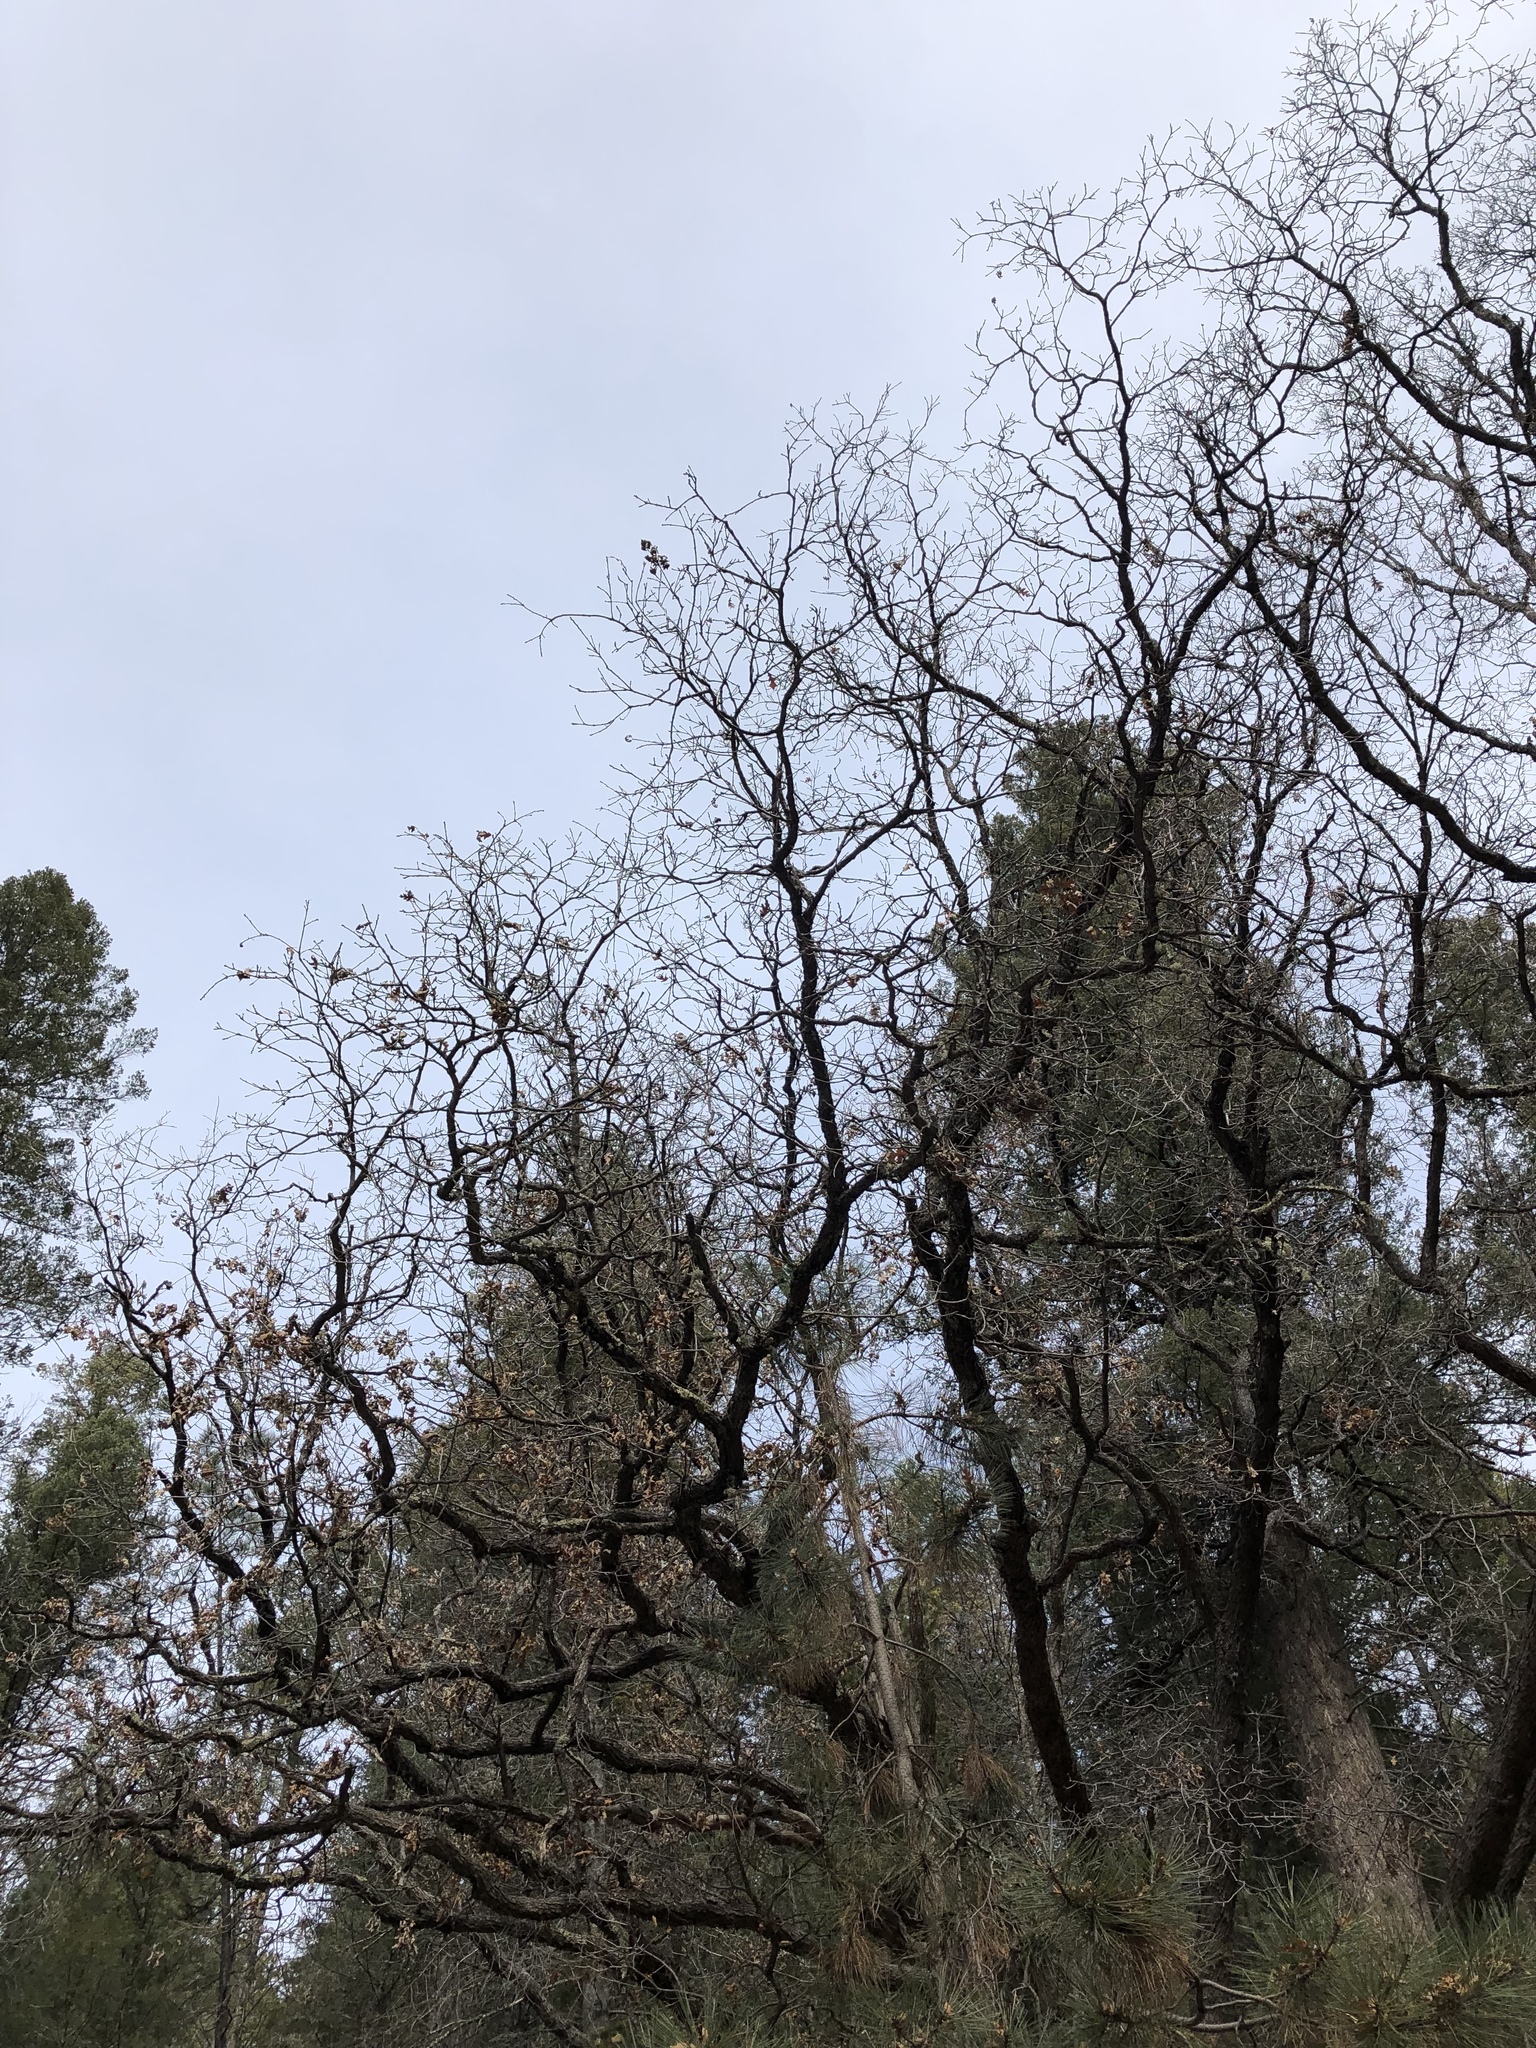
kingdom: Plantae
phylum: Tracheophyta
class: Magnoliopsida
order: Fagales
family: Fagaceae
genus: Quercus
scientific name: Quercus gambelii
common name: Gambel oak
